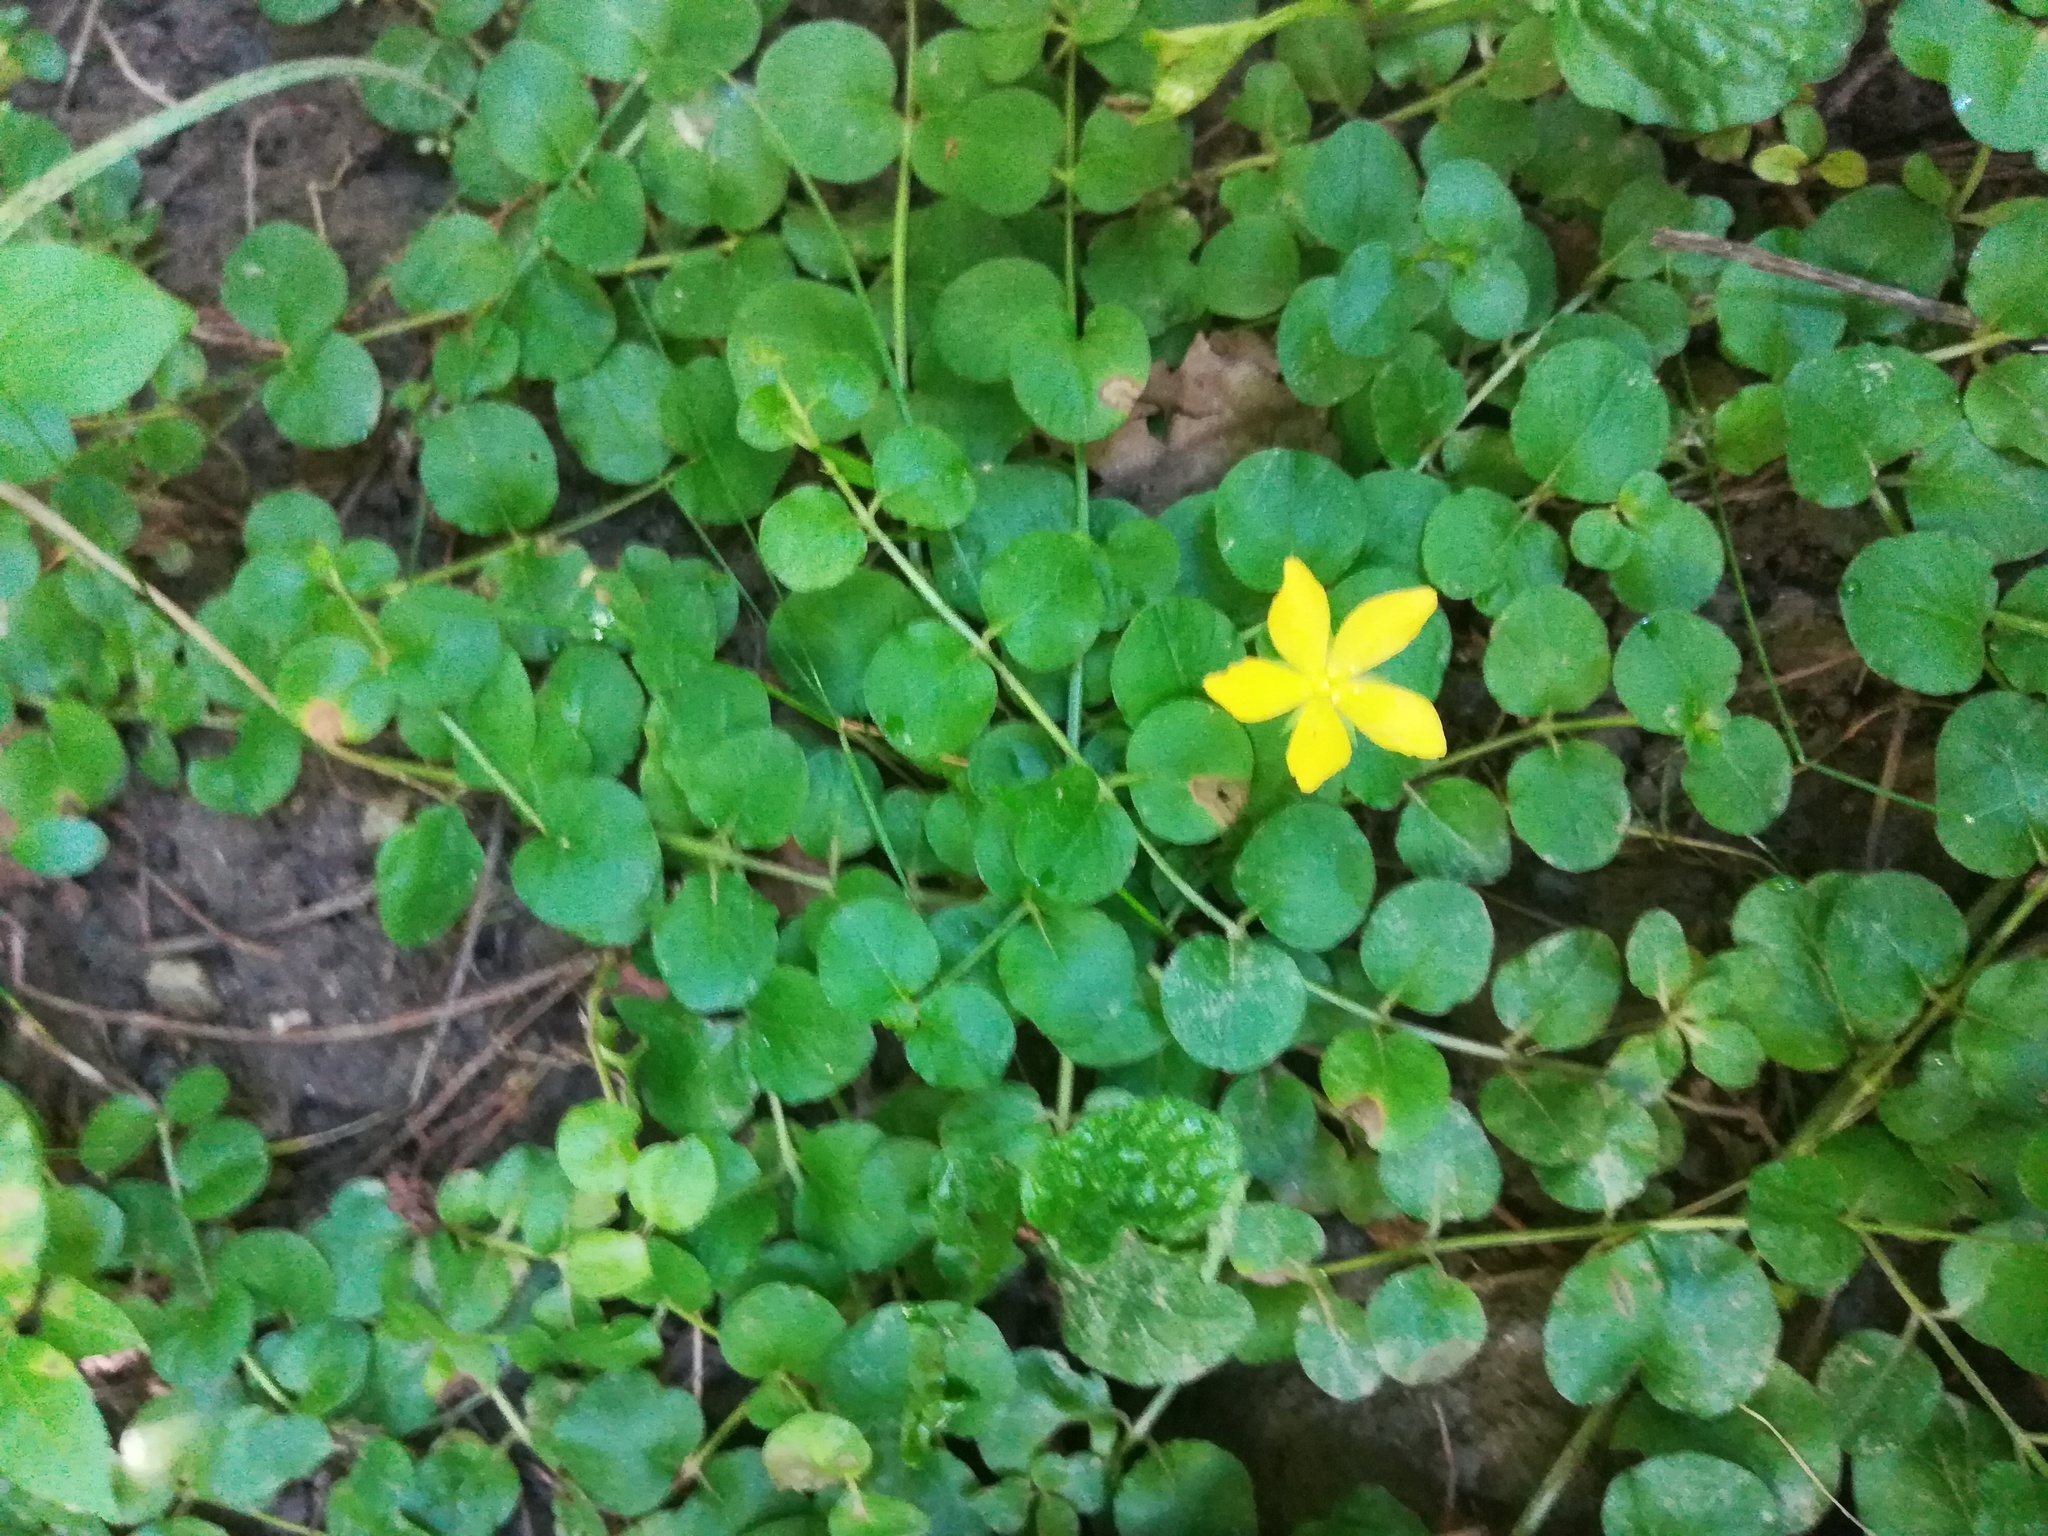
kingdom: Plantae
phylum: Tracheophyta
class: Magnoliopsida
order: Ericales
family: Primulaceae
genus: Lysimachia
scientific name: Lysimachia nummularia
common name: Moneywort
